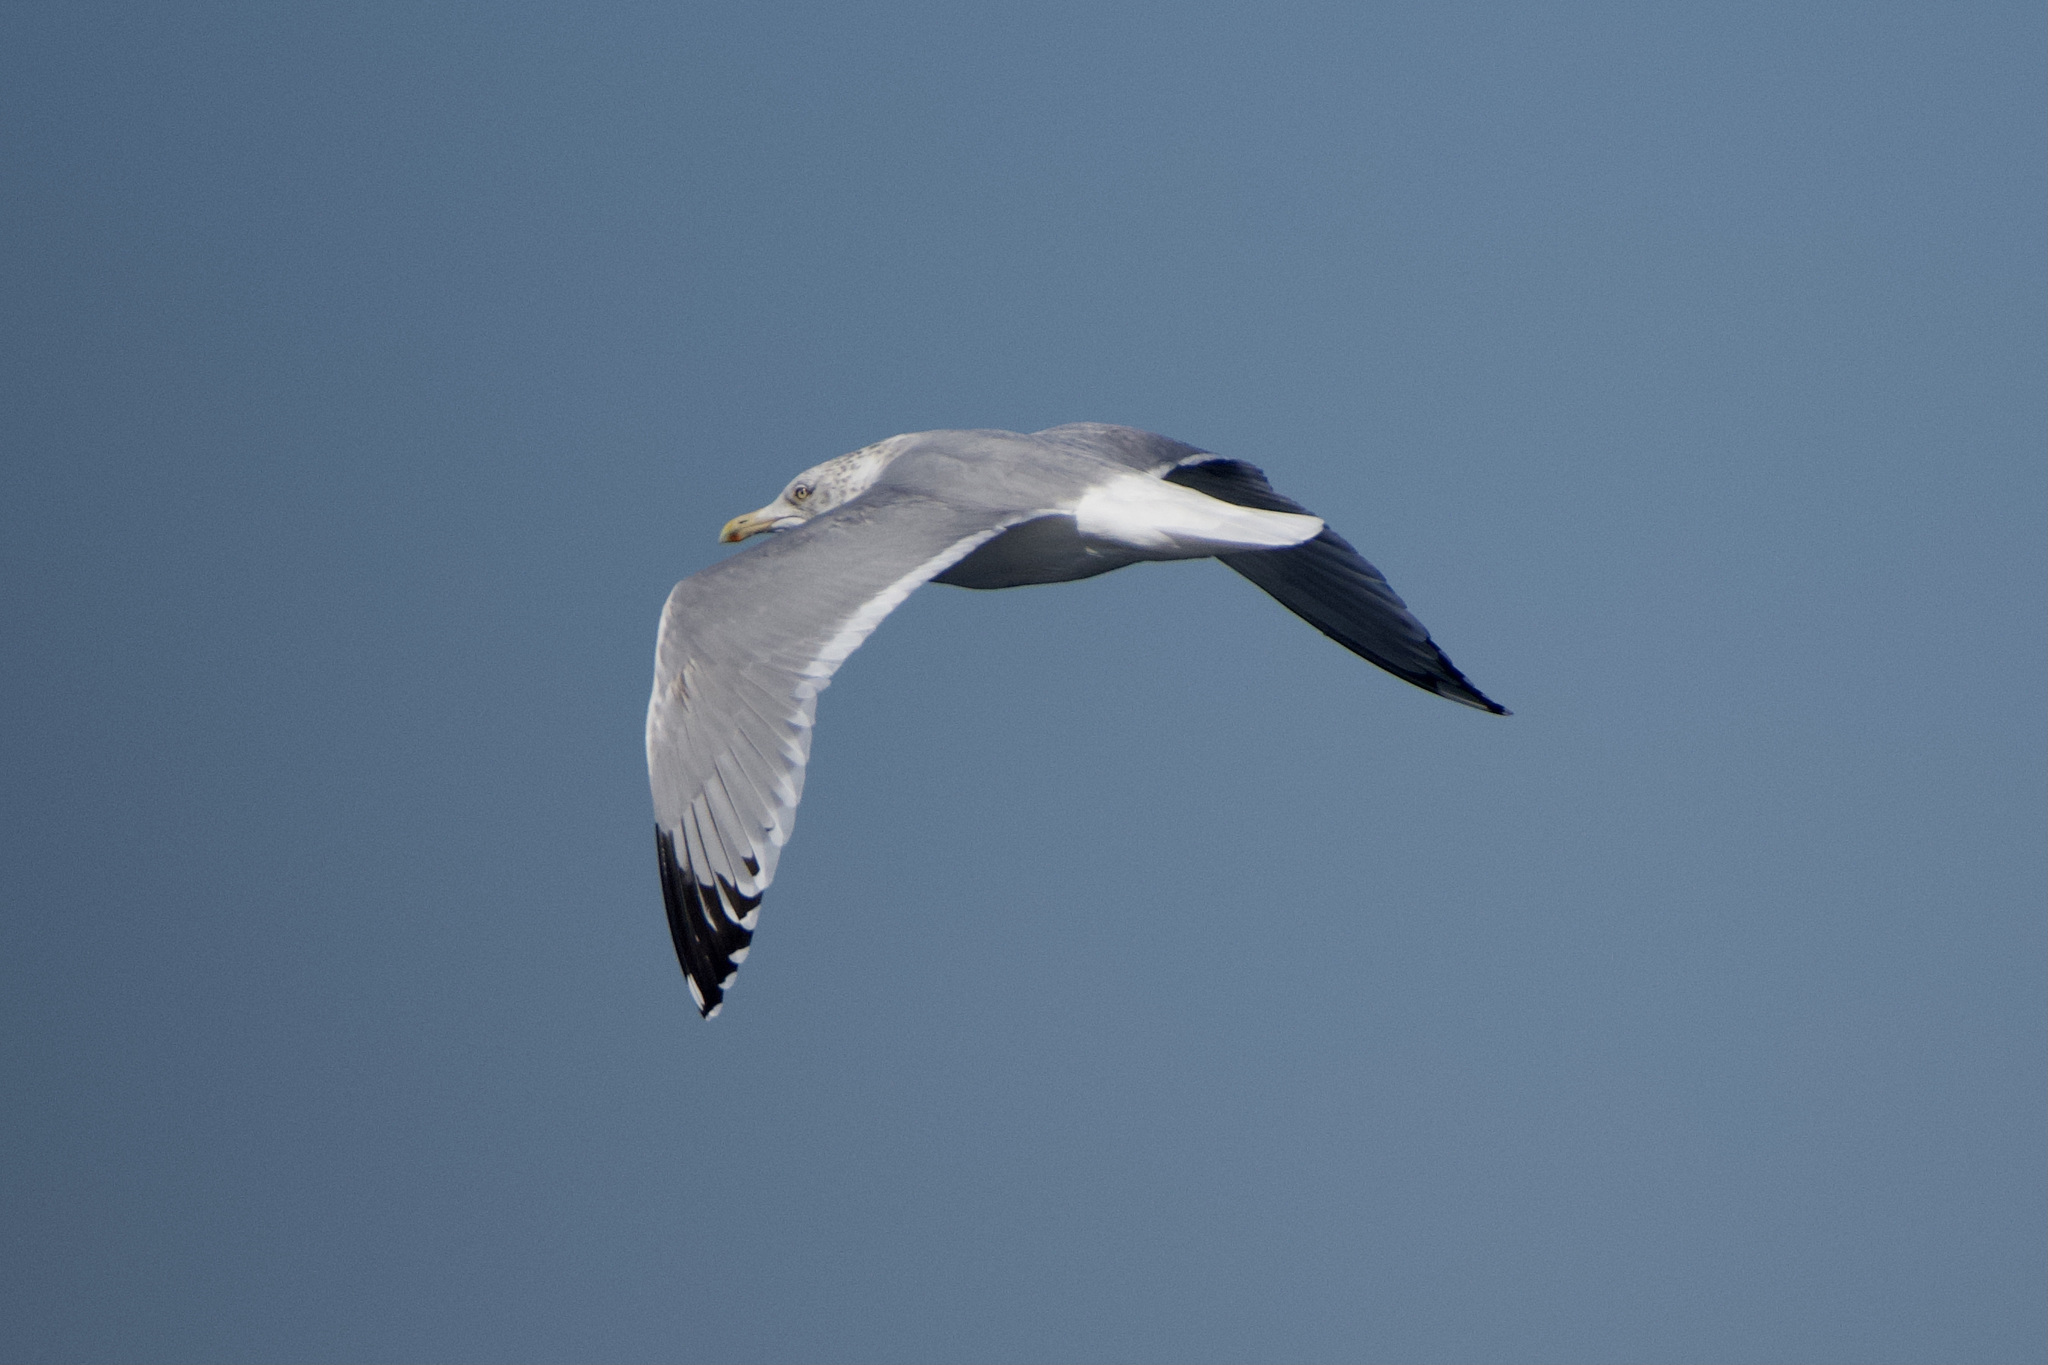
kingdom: Animalia
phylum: Chordata
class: Aves
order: Charadriiformes
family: Laridae
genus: Larus
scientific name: Larus argentatus
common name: Herring gull
